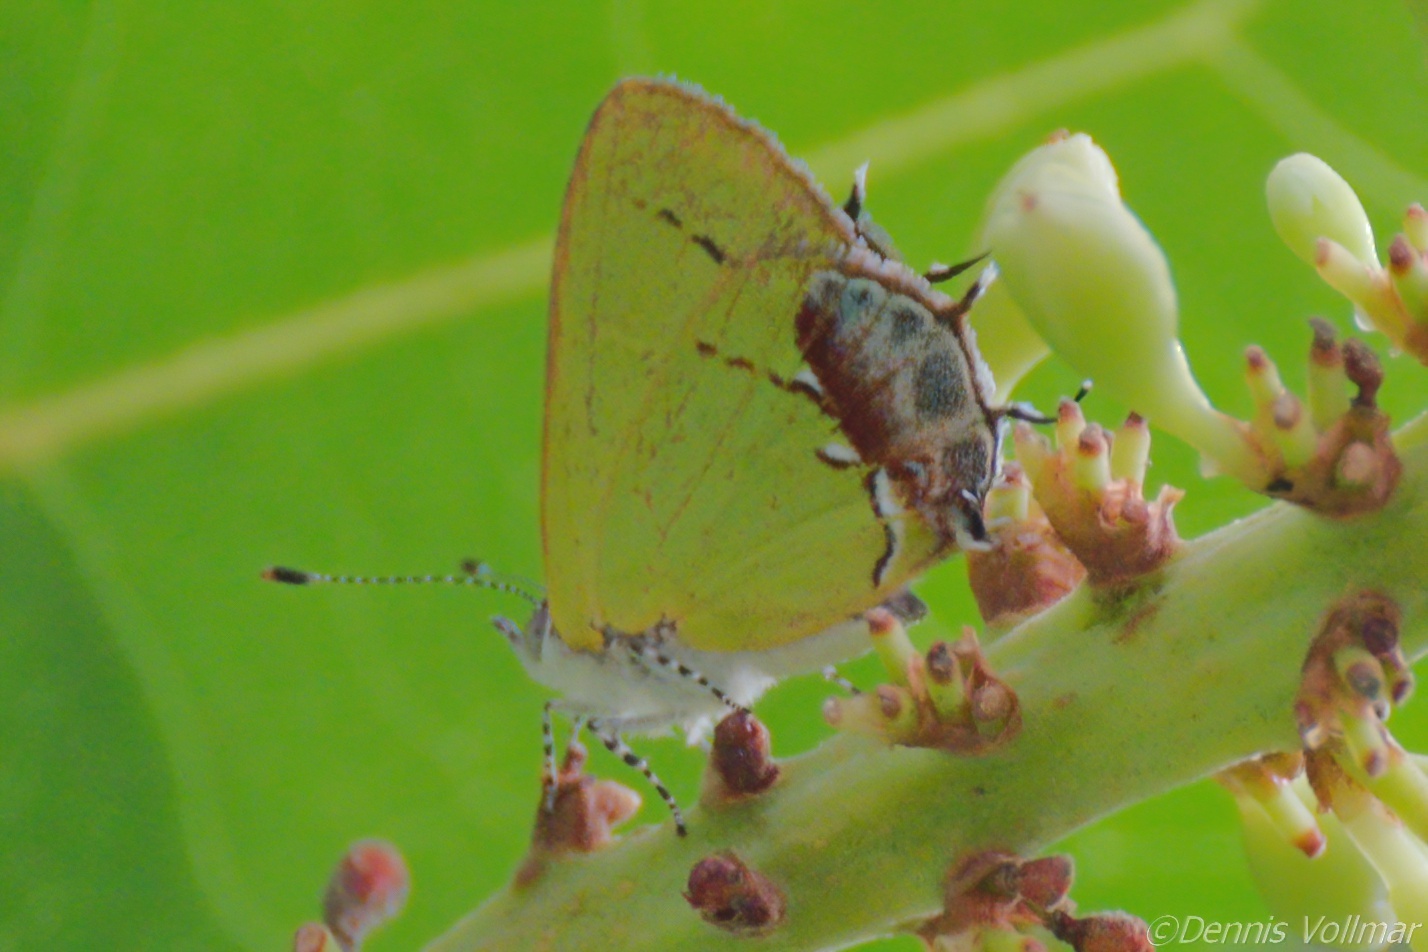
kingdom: Animalia
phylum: Arthropoda
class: Insecta
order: Lepidoptera
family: Lycaenidae
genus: Thecla
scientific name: Thecla maesites
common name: Verde azul hairstreak
